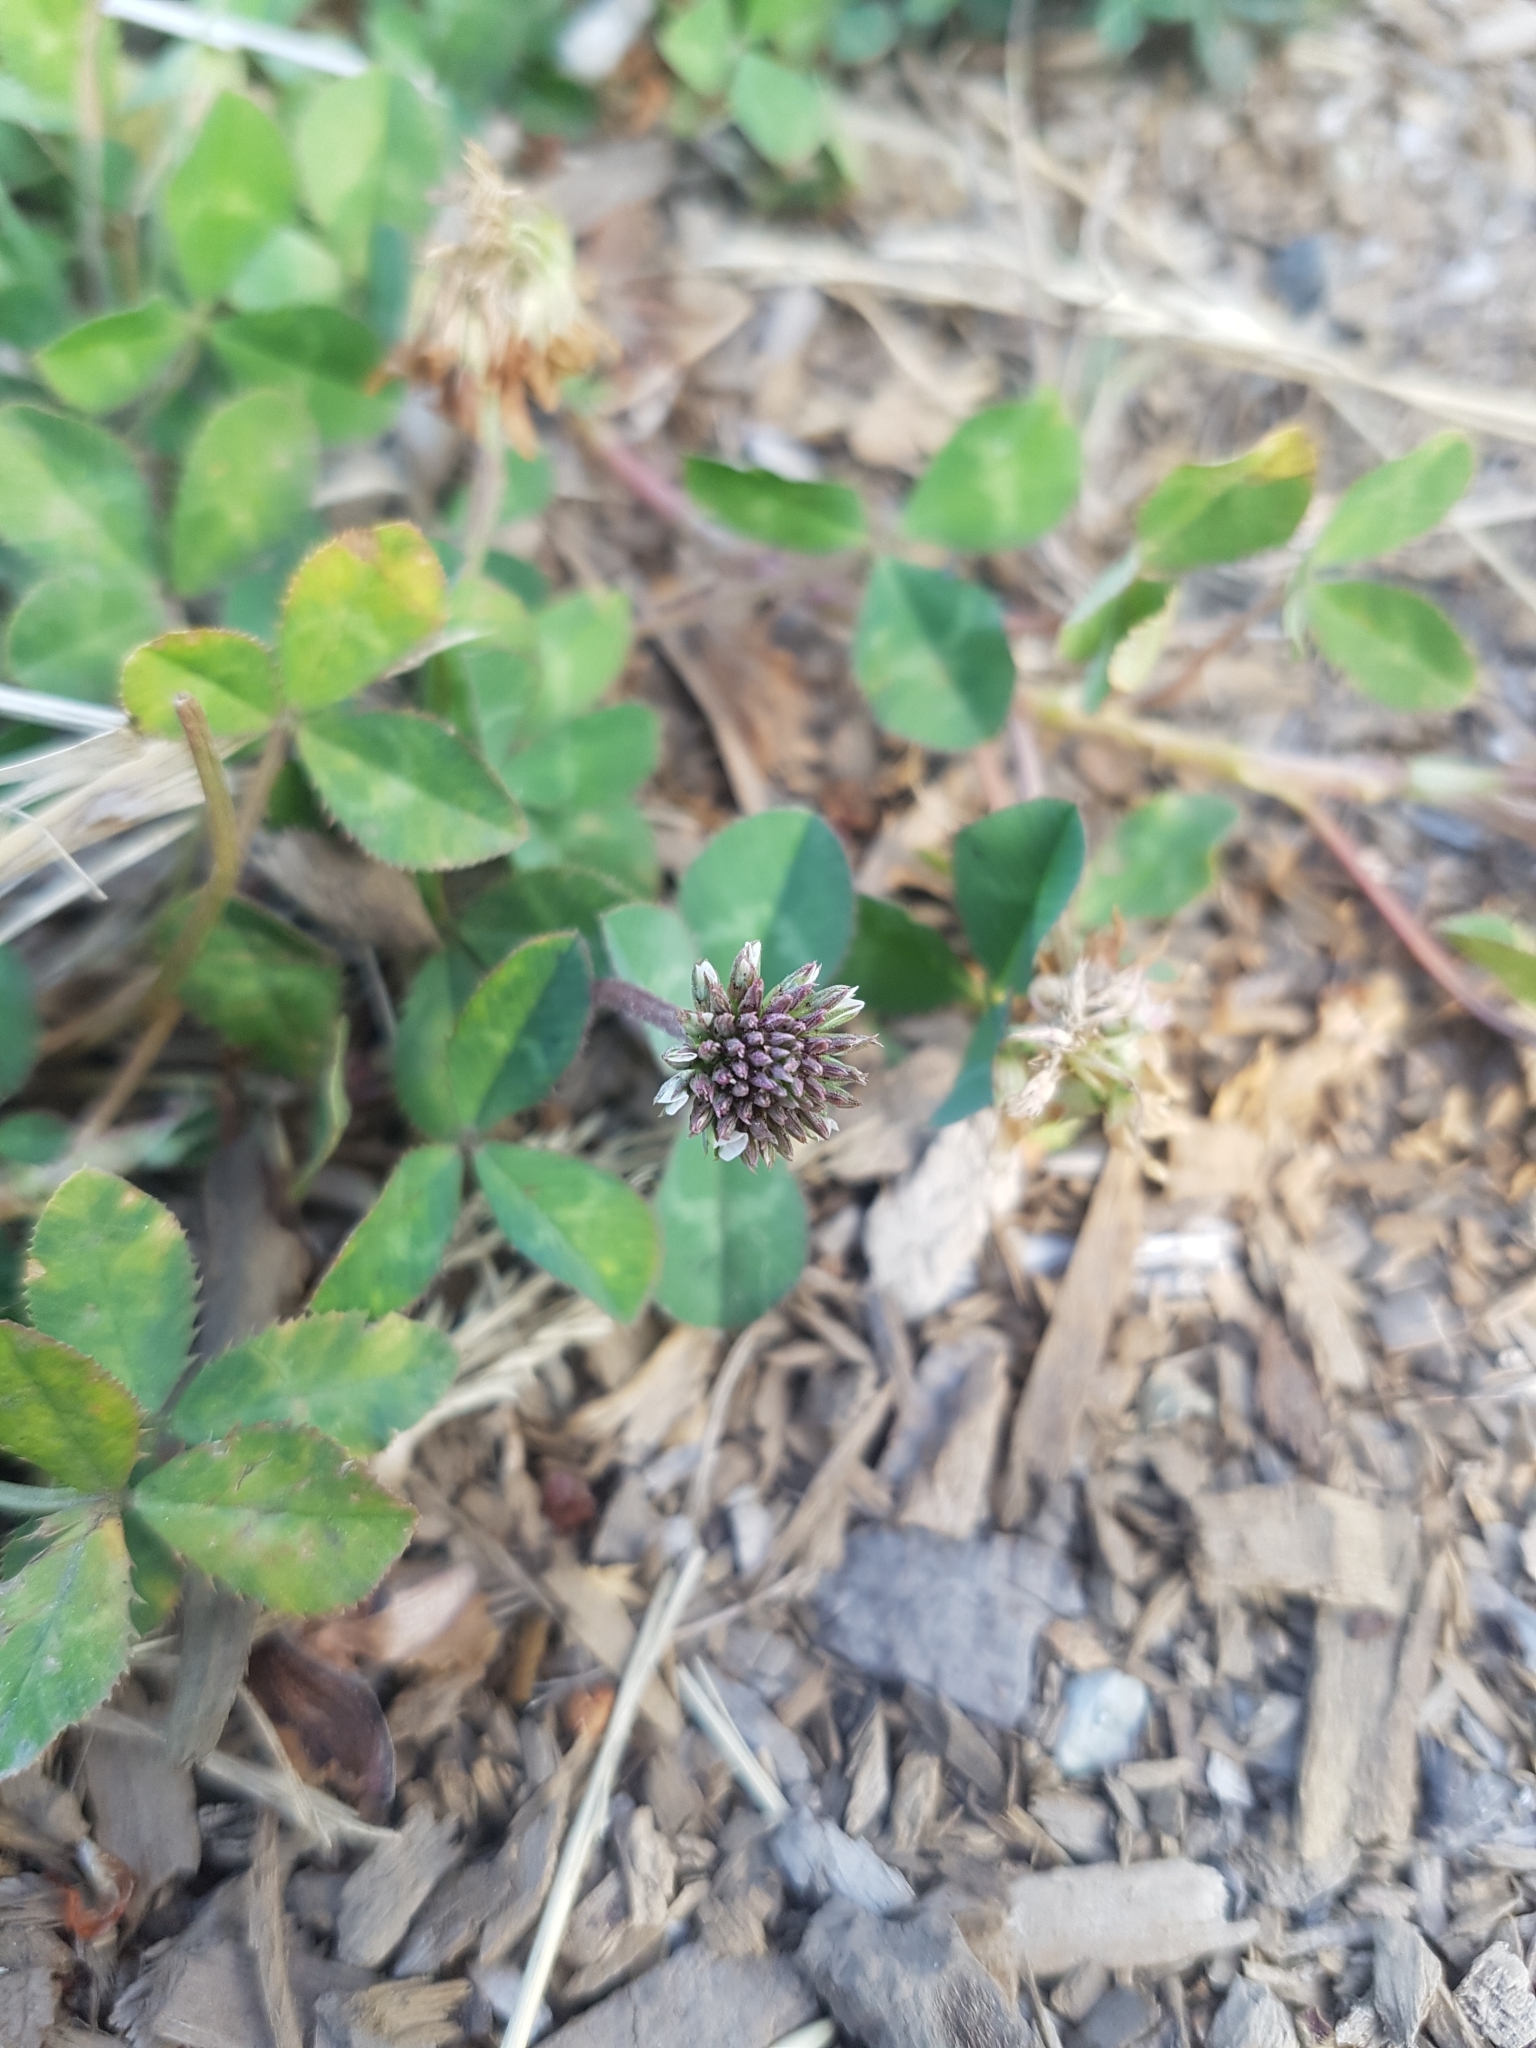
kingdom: Plantae
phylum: Tracheophyta
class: Magnoliopsida
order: Fabales
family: Fabaceae
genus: Trifolium
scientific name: Trifolium repens
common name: White clover
